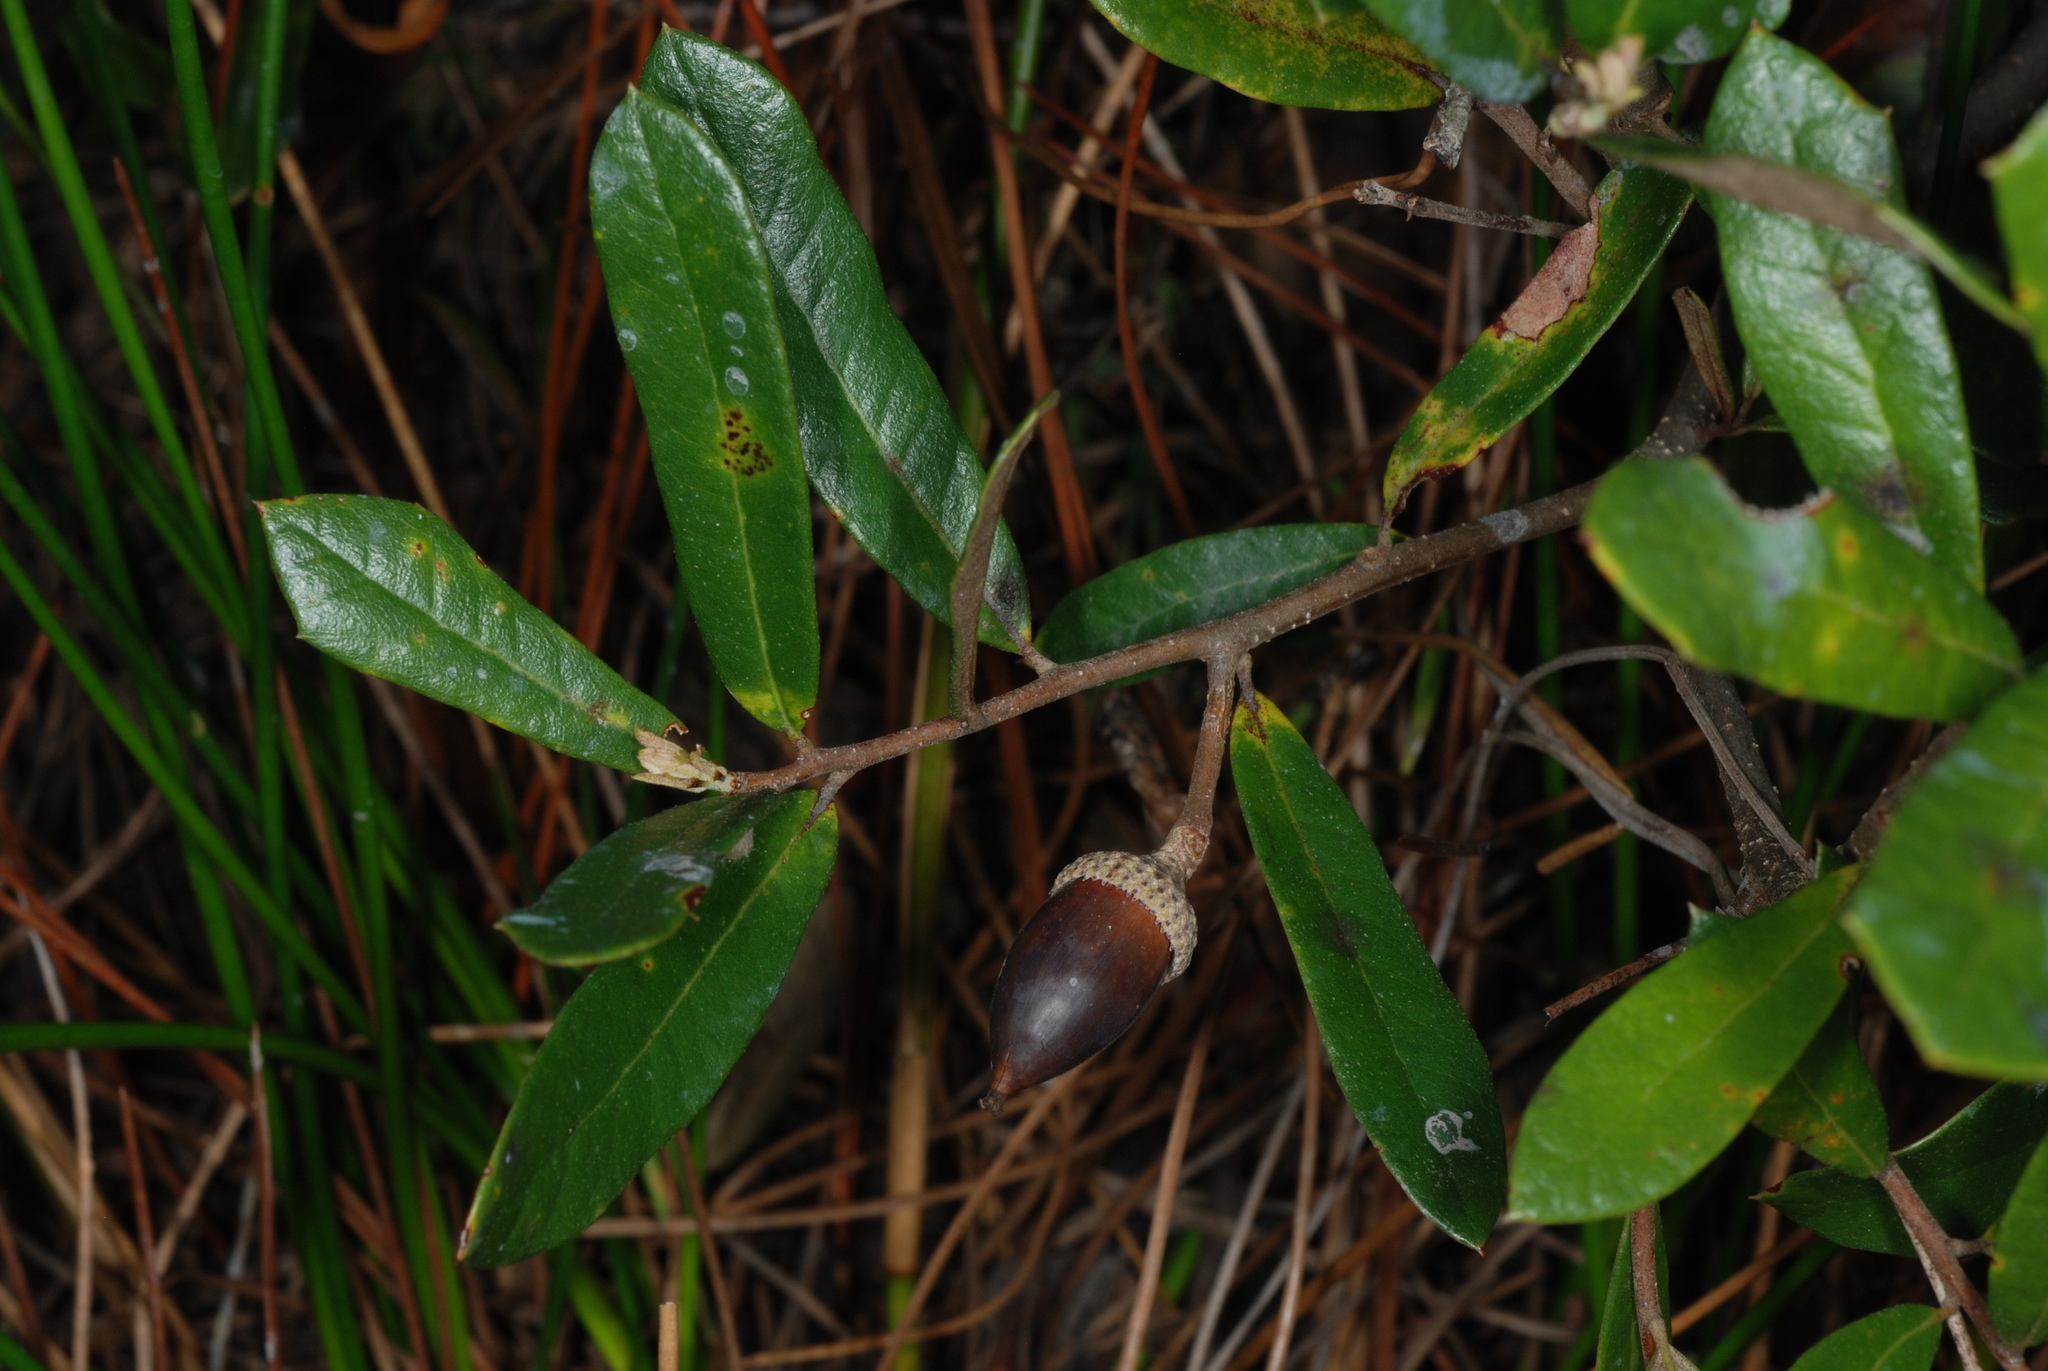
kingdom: Plantae
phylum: Tracheophyta
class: Magnoliopsida
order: Fagales
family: Fagaceae
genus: Quercus
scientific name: Quercus succulenta
